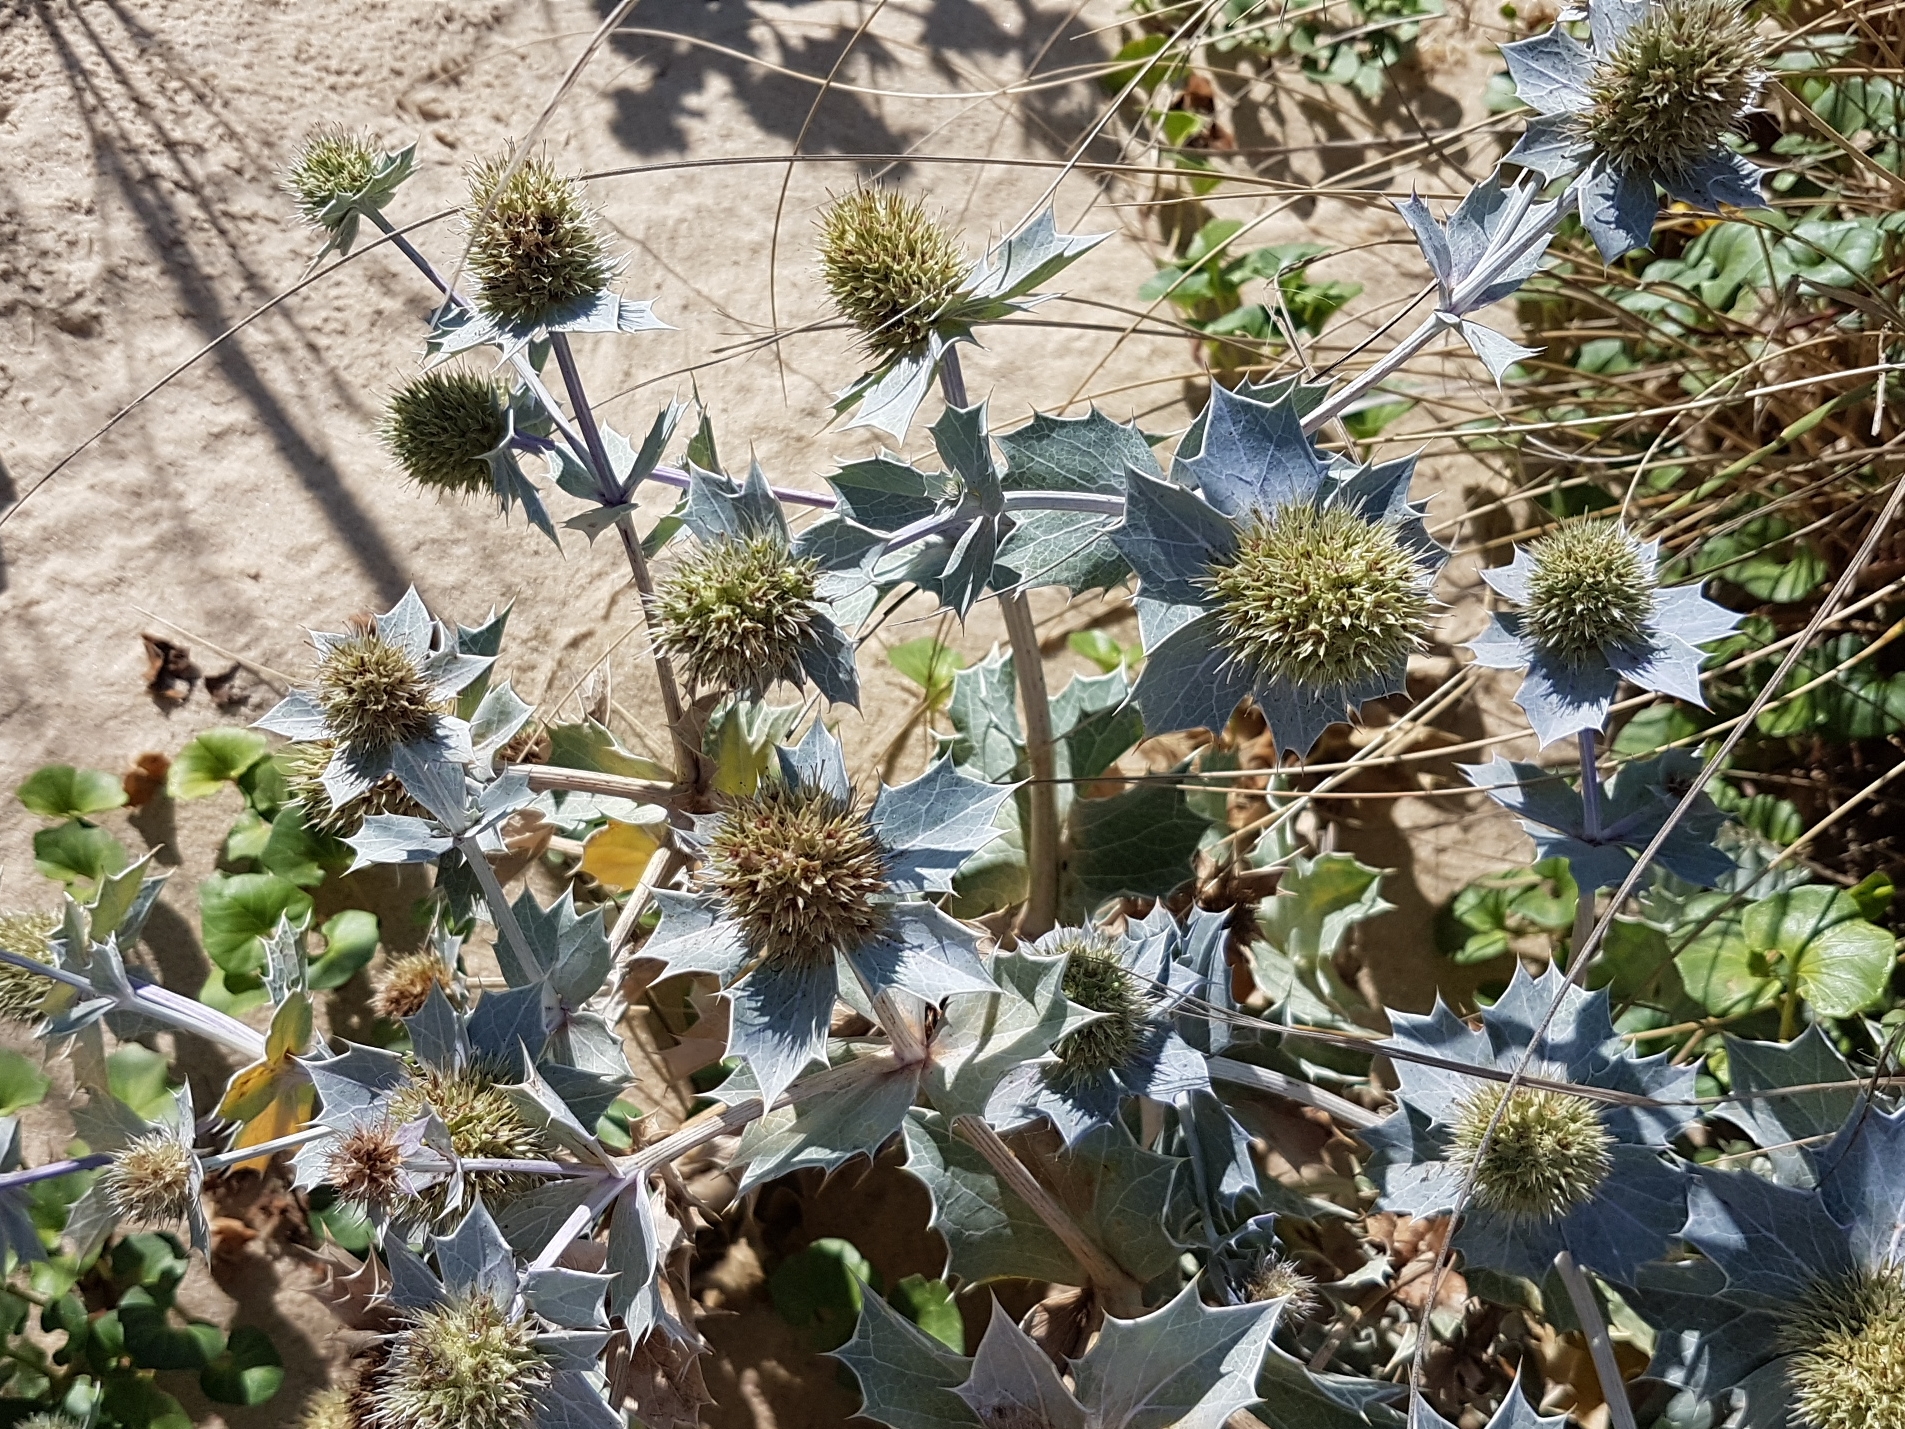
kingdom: Plantae
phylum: Tracheophyta
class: Magnoliopsida
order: Apiales
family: Apiaceae
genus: Eryngium
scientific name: Eryngium maritimum
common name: Sea-holly
